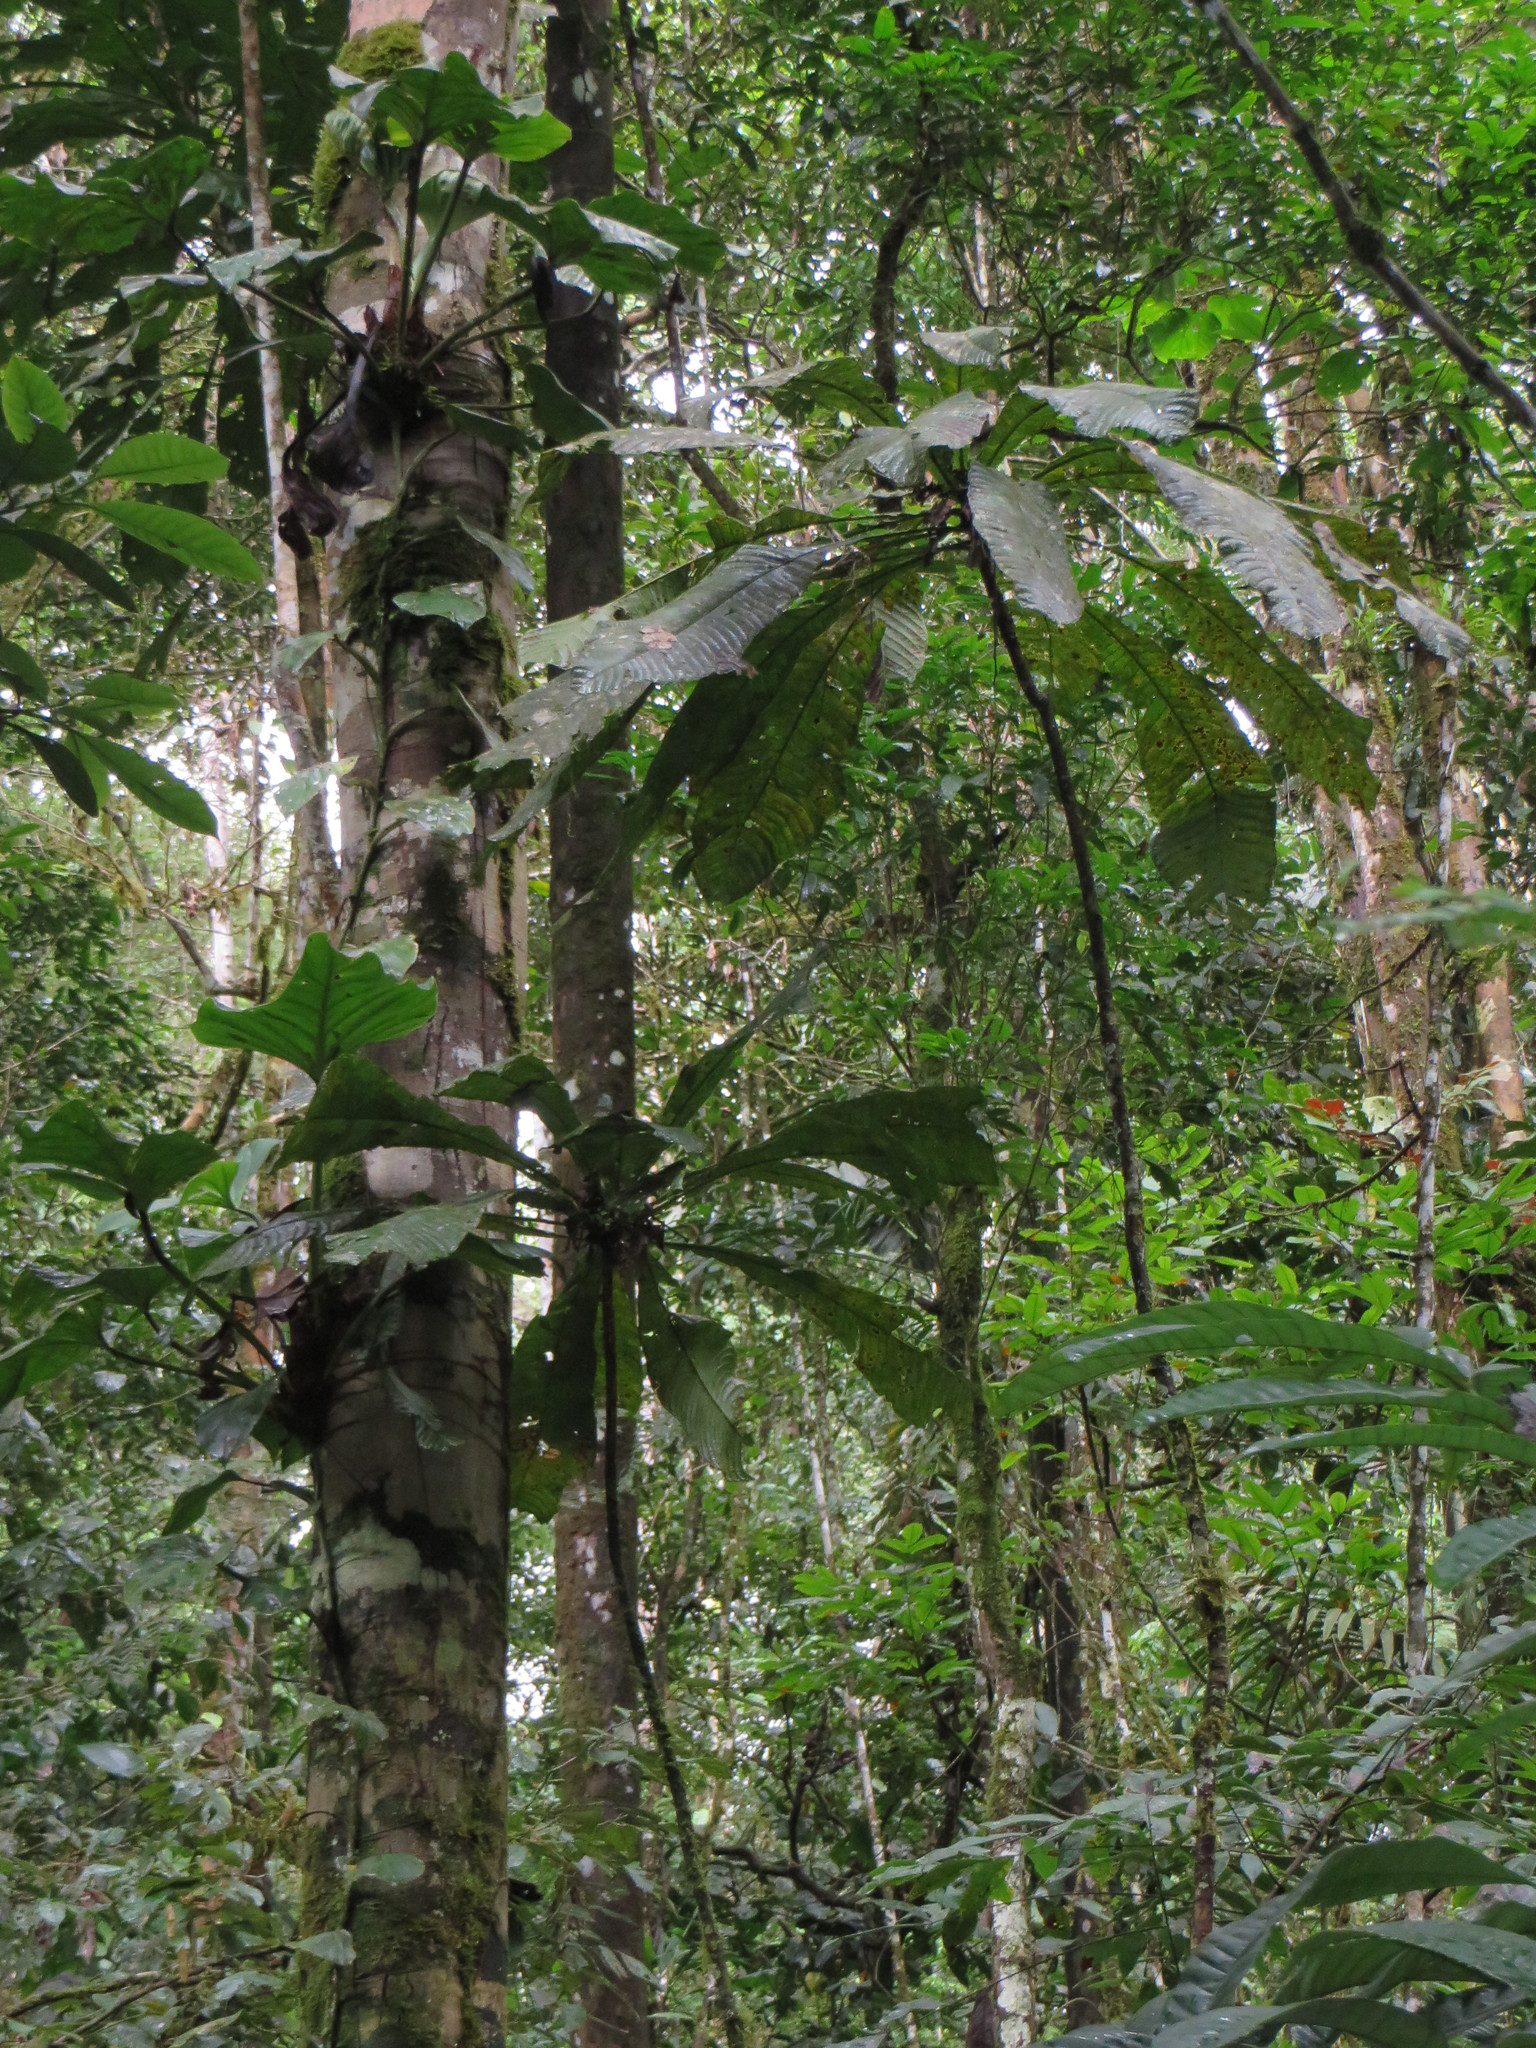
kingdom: Plantae
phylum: Tracheophyta
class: Magnoliopsida
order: Ericales
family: Lecythidaceae
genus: Gustavia
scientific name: Gustavia longifolia
